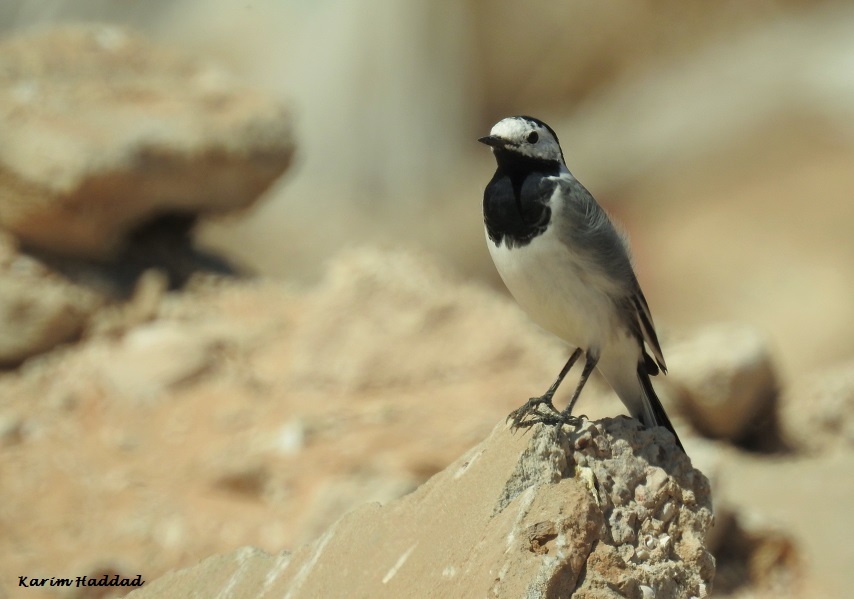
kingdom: Animalia
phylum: Chordata
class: Aves
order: Passeriformes
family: Motacillidae
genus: Motacilla
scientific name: Motacilla alba
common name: White wagtail
